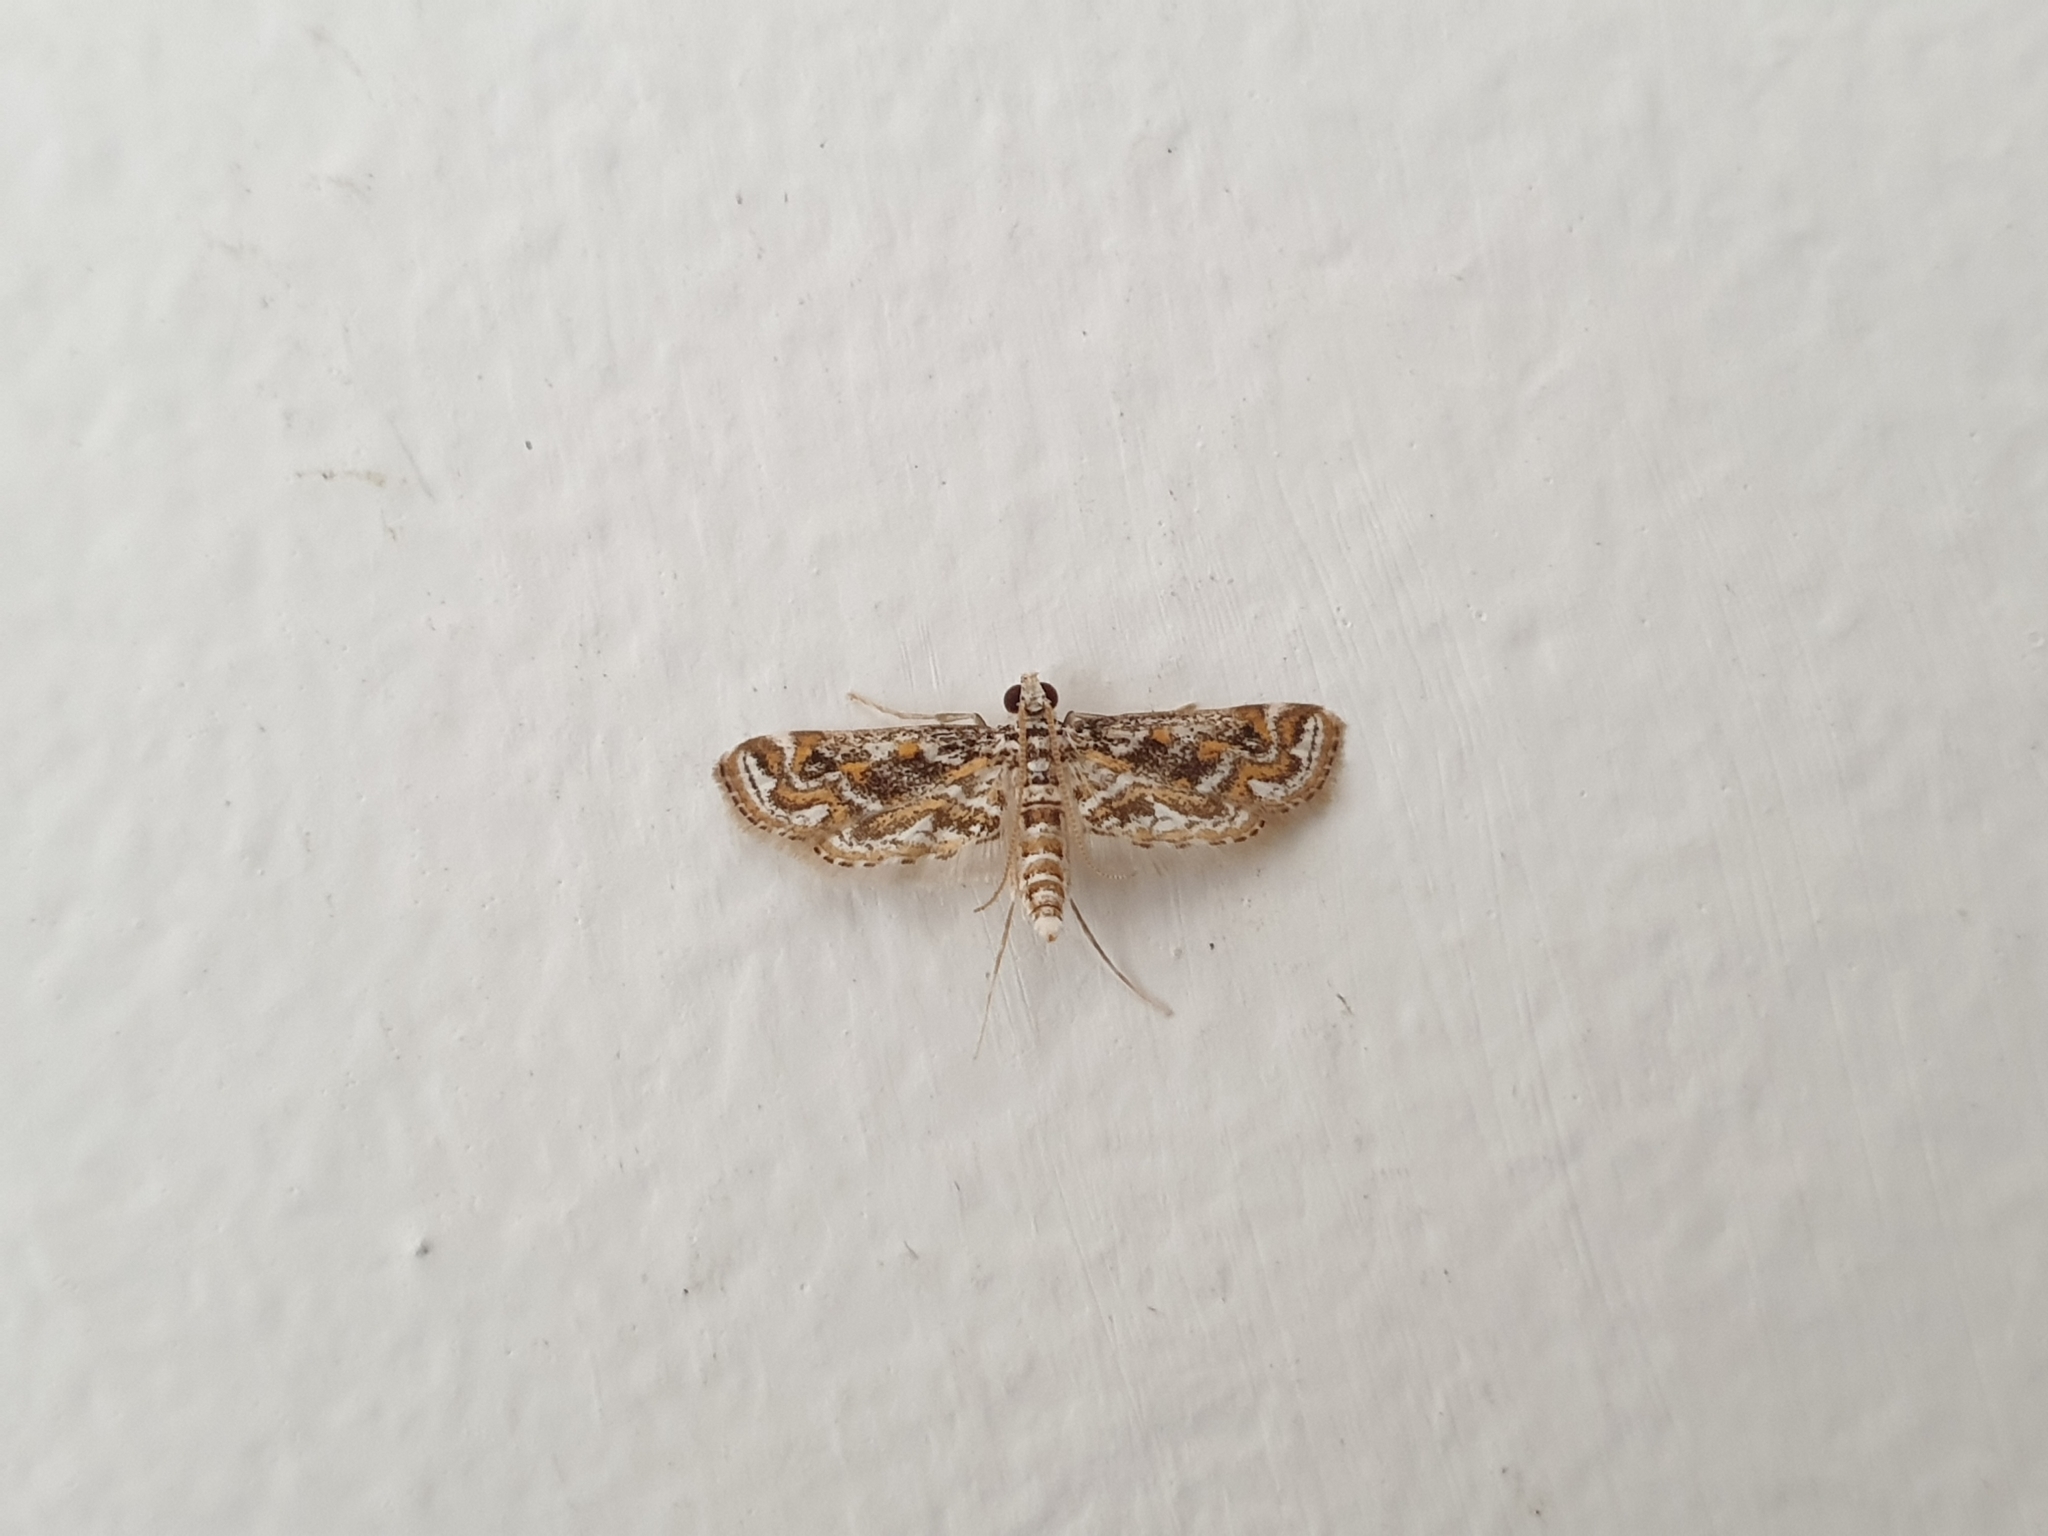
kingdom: Animalia
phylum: Arthropoda
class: Insecta
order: Lepidoptera
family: Crambidae
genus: Parapoynx
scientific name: Parapoynx diminutalis
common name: Hydrilla leafcutter
